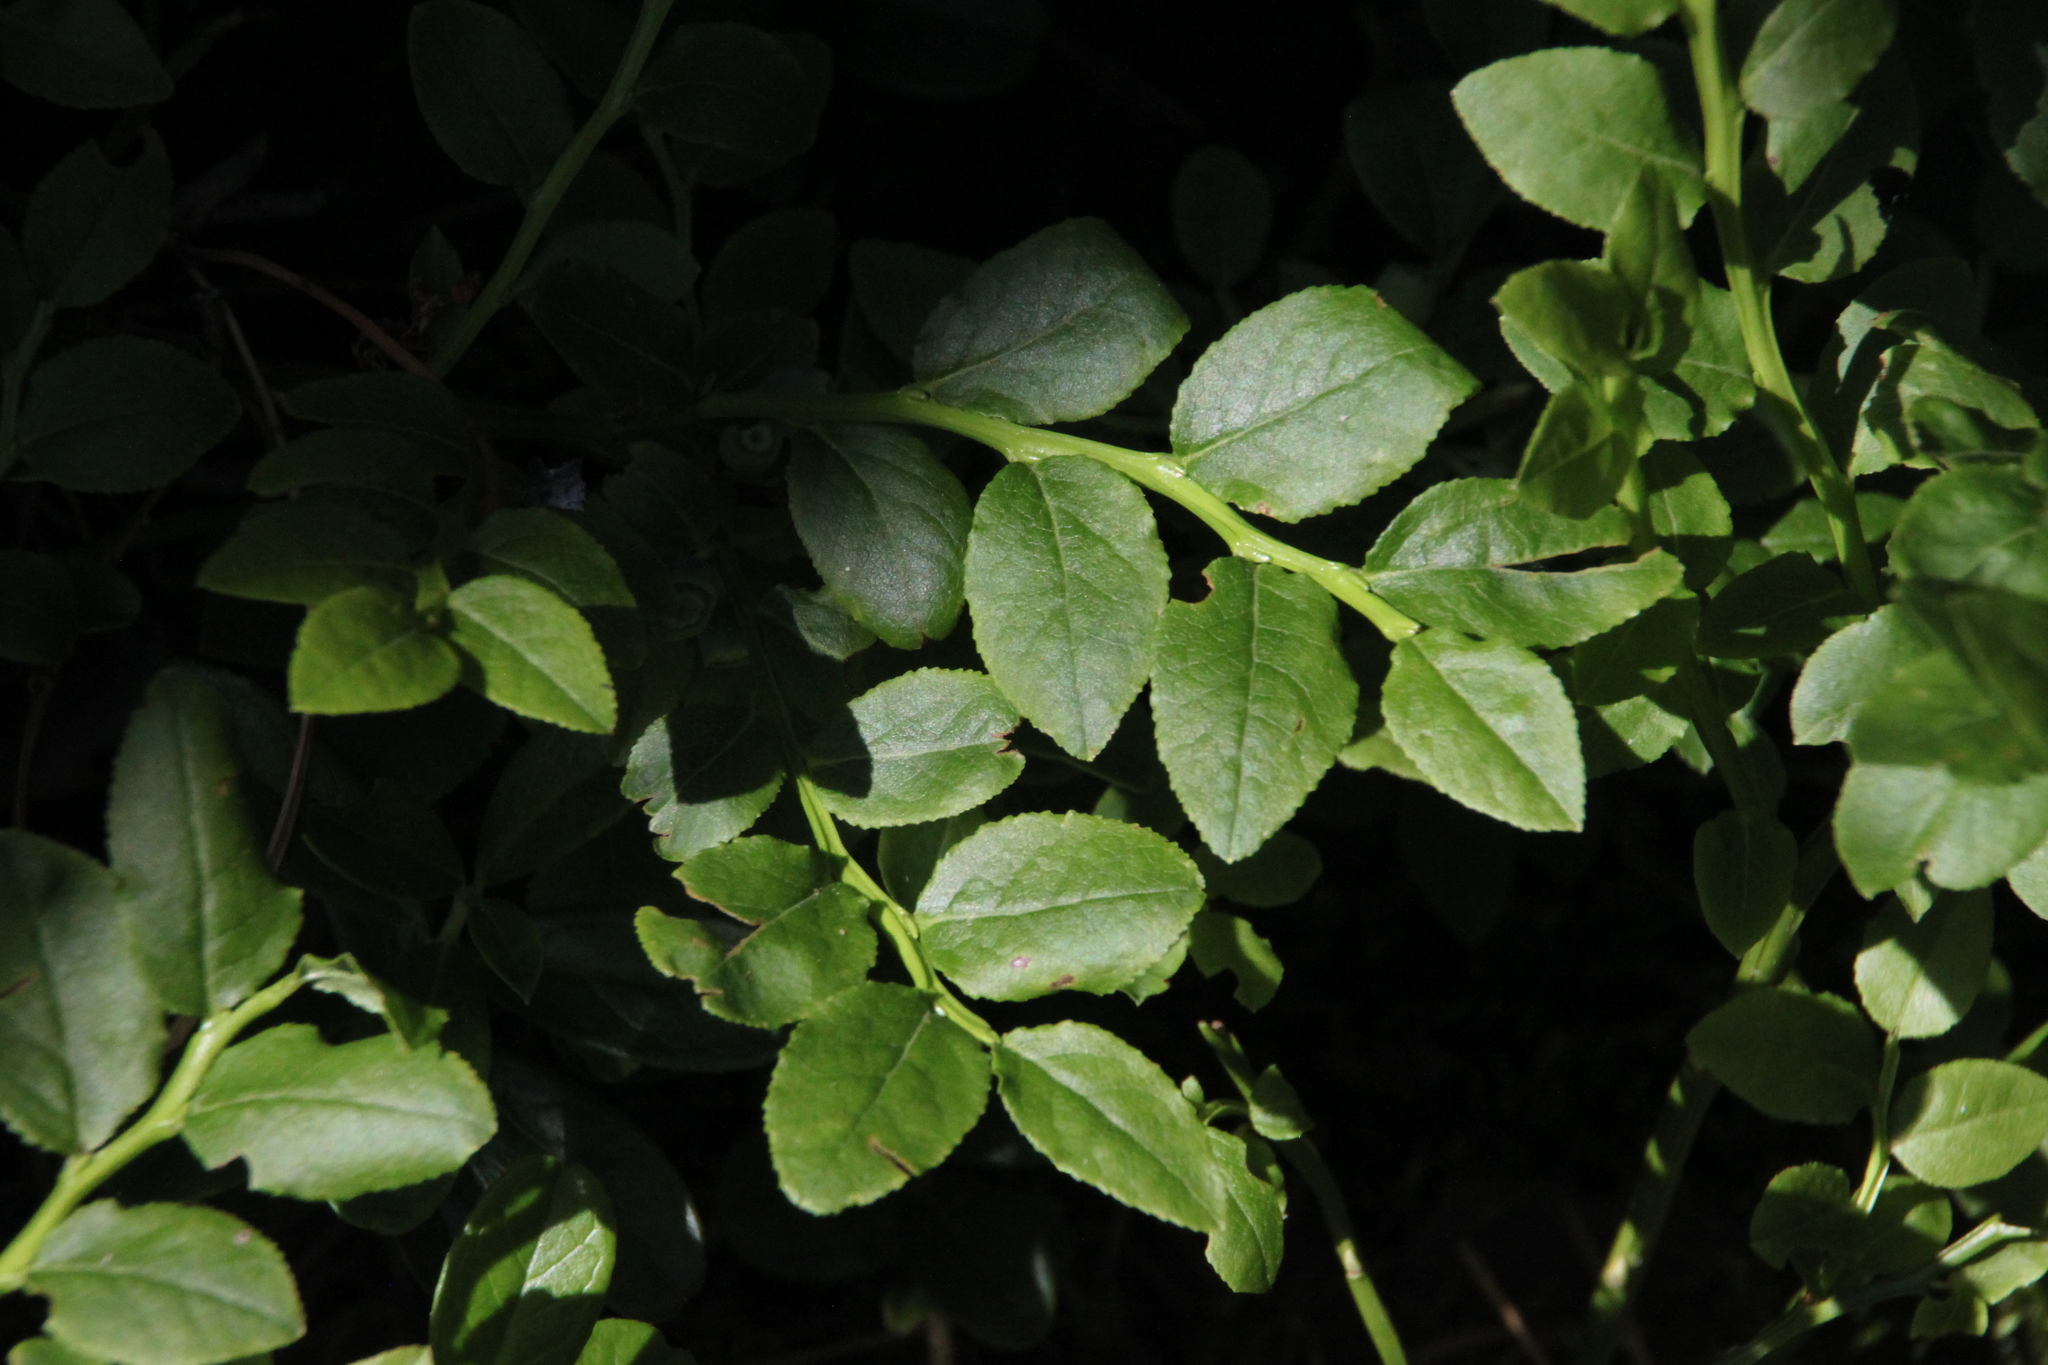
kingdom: Plantae
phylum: Tracheophyta
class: Magnoliopsida
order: Ericales
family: Ericaceae
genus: Vaccinium
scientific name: Vaccinium myrtillus
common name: Bilberry
